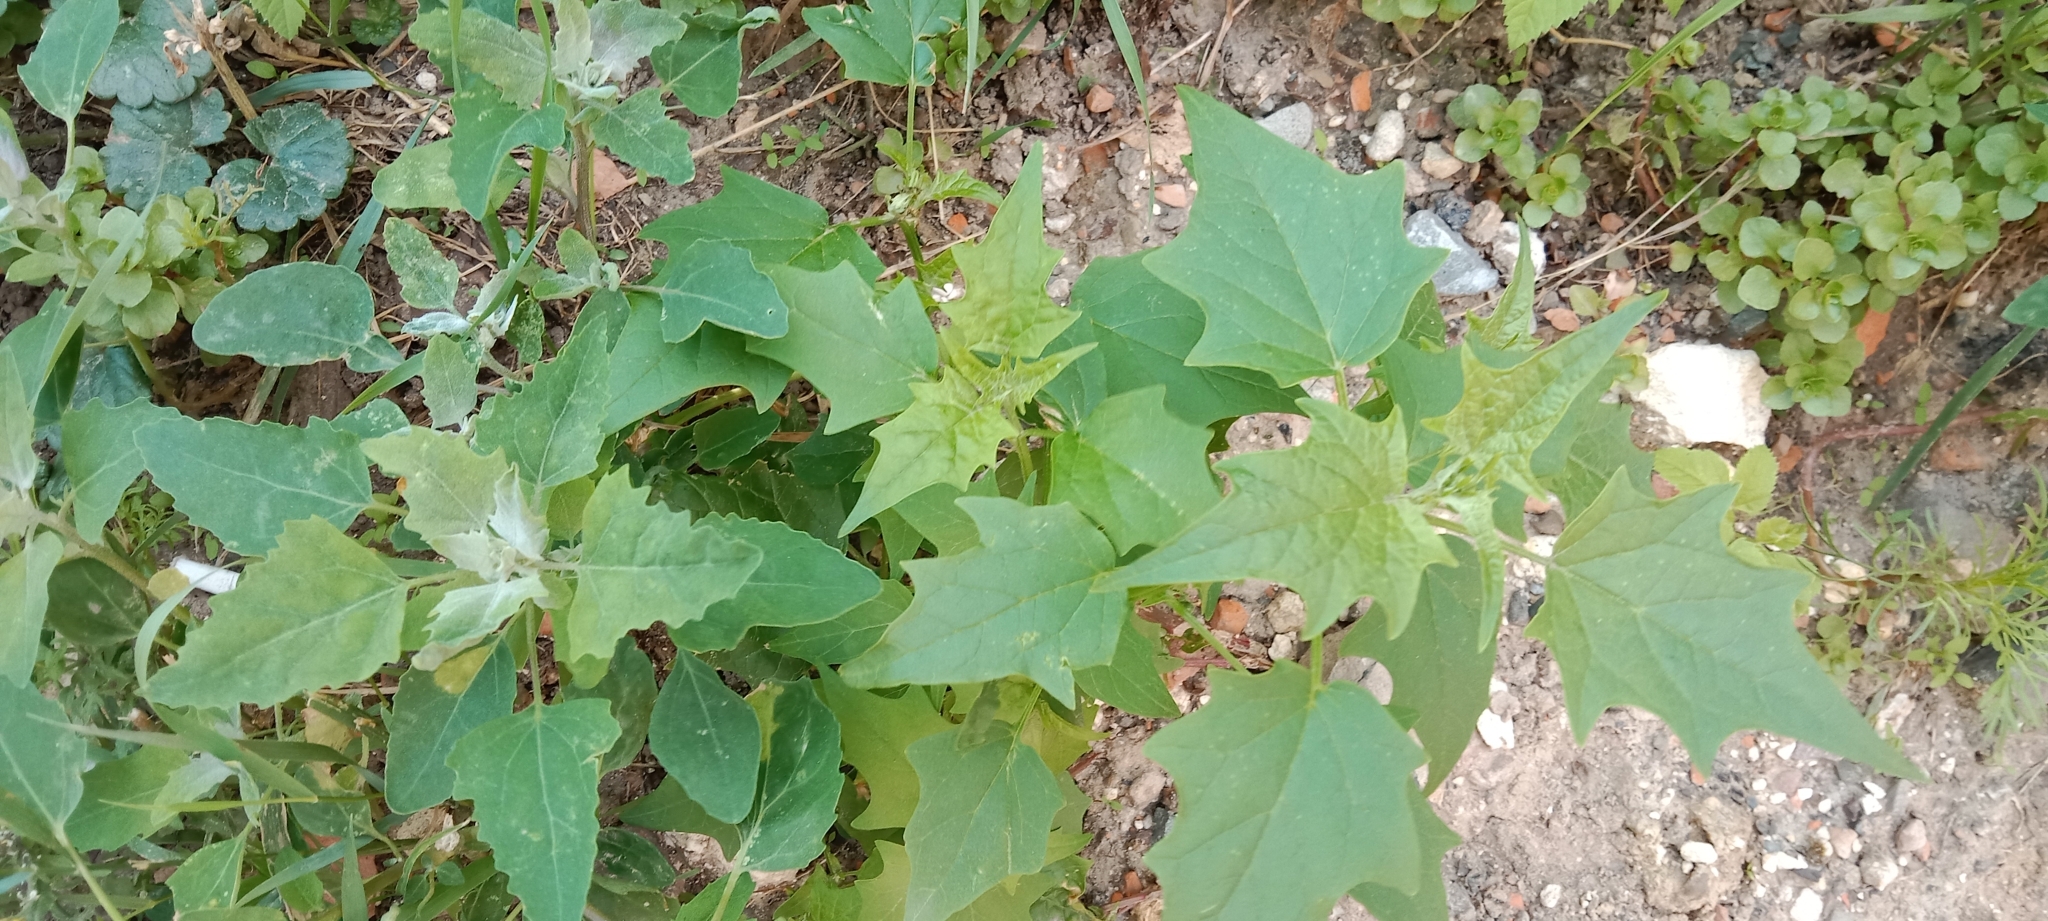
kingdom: Plantae
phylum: Tracheophyta
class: Magnoliopsida
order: Caryophyllales
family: Amaranthaceae
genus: Chenopodiastrum
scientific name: Chenopodiastrum hybridum
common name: Mapleleaf goosefoot
